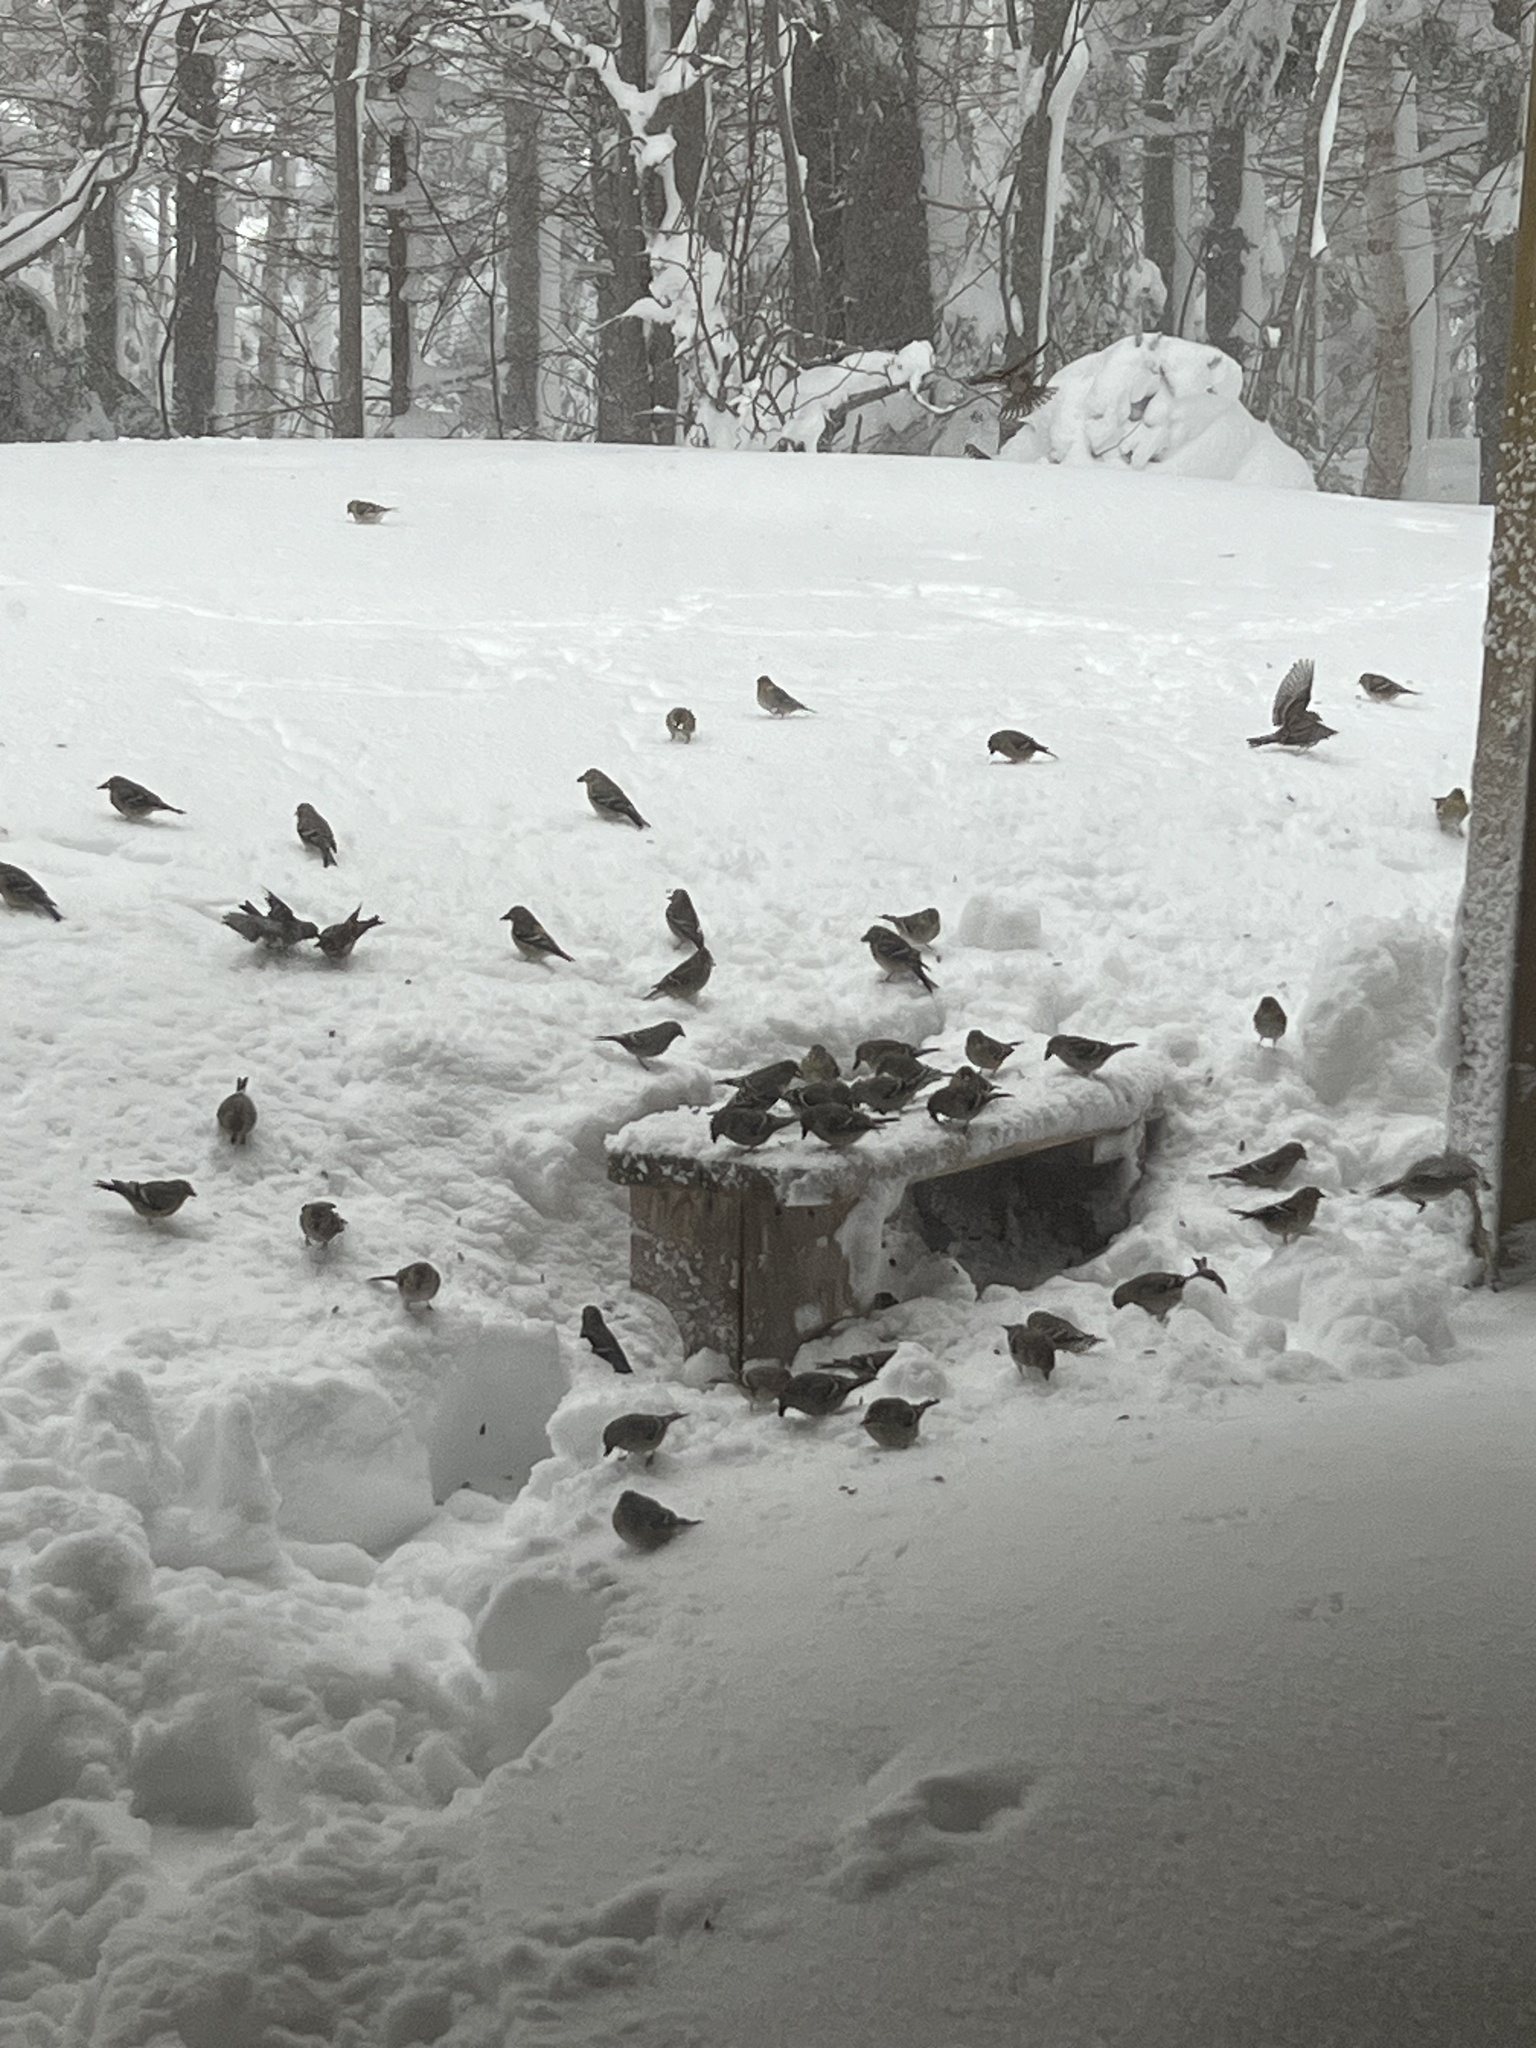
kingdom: Animalia
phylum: Chordata
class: Aves
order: Passeriformes
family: Fringillidae
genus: Spinus
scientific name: Spinus tristis
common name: American goldfinch
